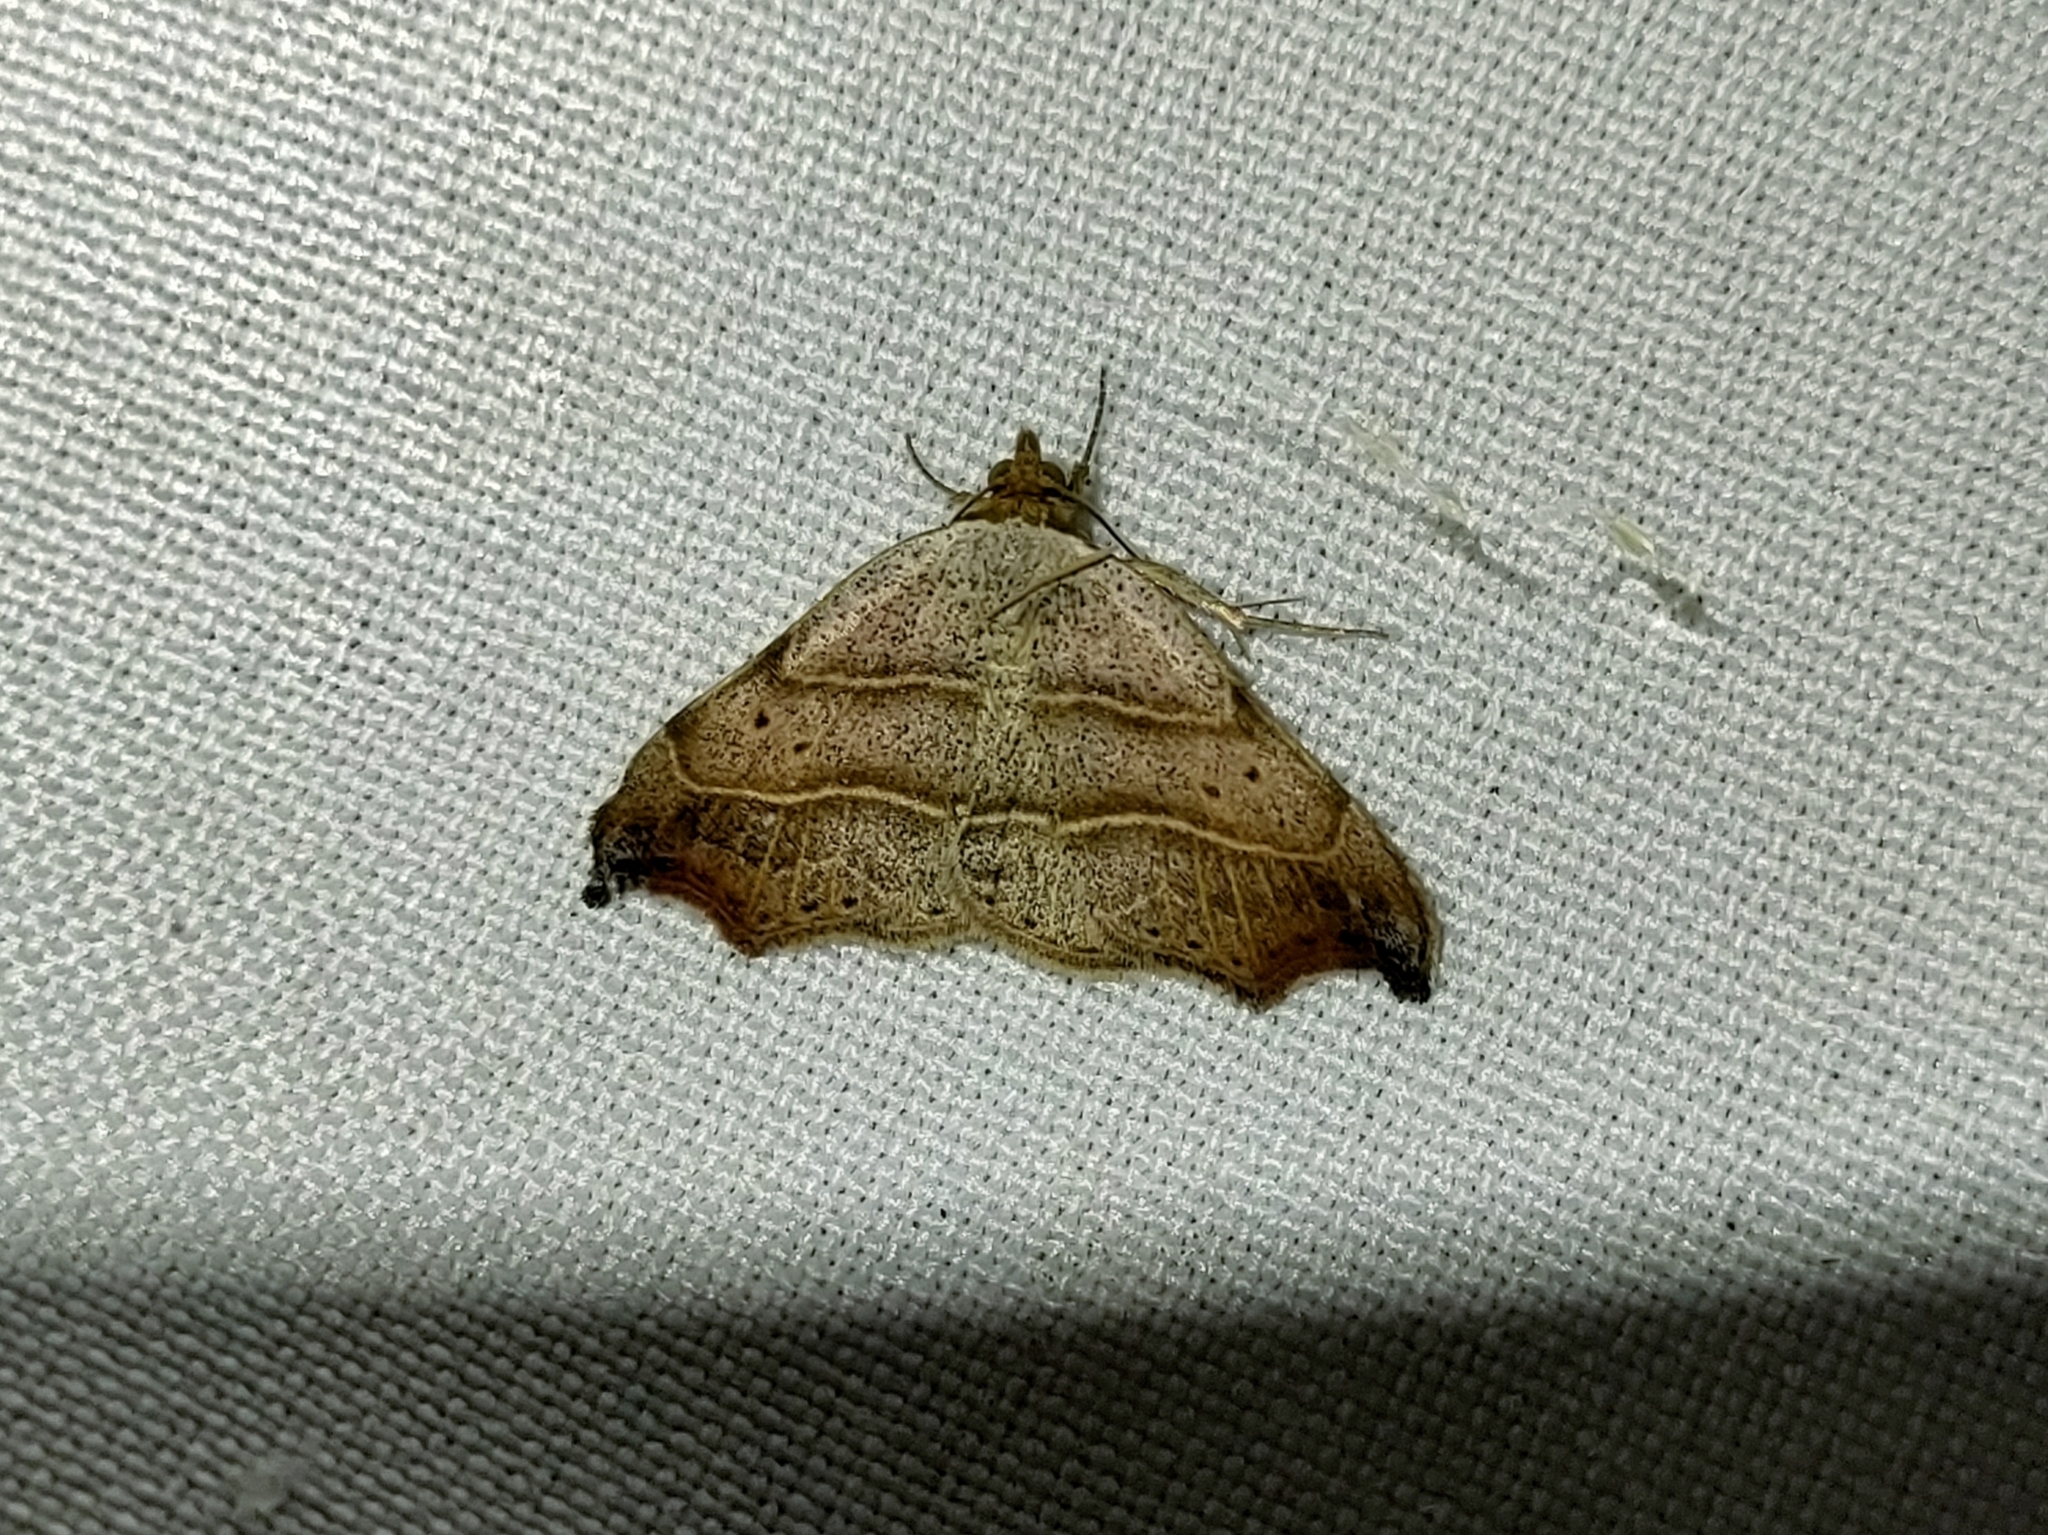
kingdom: Animalia
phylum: Arthropoda
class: Insecta
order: Lepidoptera
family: Erebidae
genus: Laspeyria
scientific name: Laspeyria flexula
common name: Beautiful hook-tip
